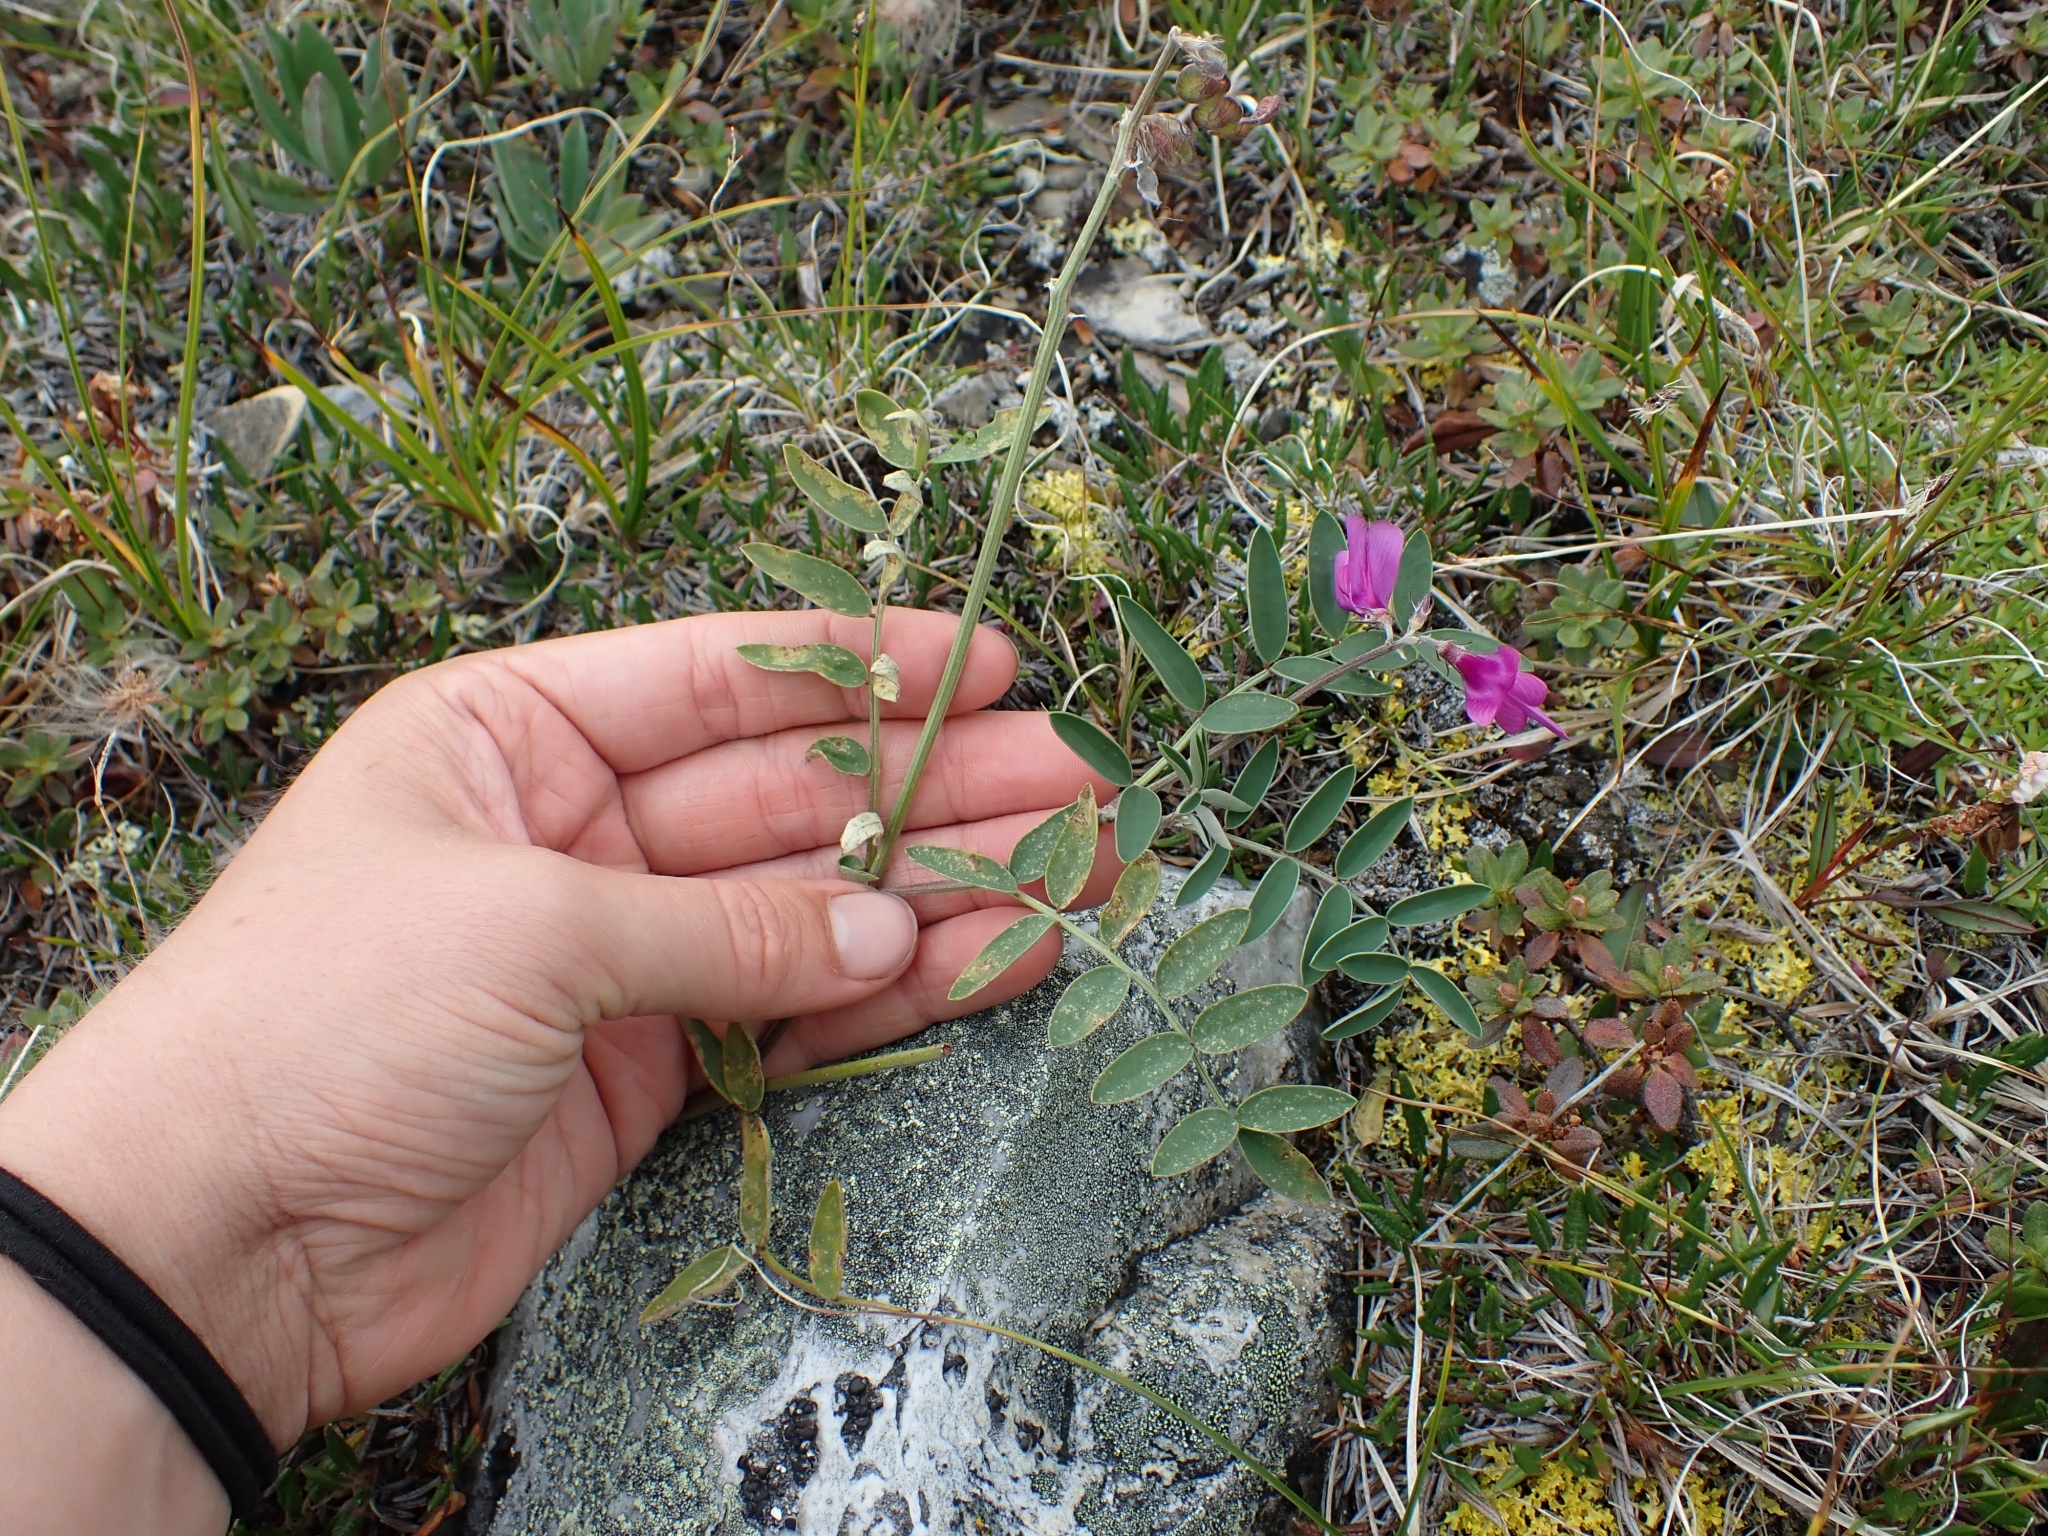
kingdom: Plantae
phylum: Tracheophyta
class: Magnoliopsida
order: Fabales
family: Fabaceae
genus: Hedysarum
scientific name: Hedysarum boreale
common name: Northern sweet-vetch
